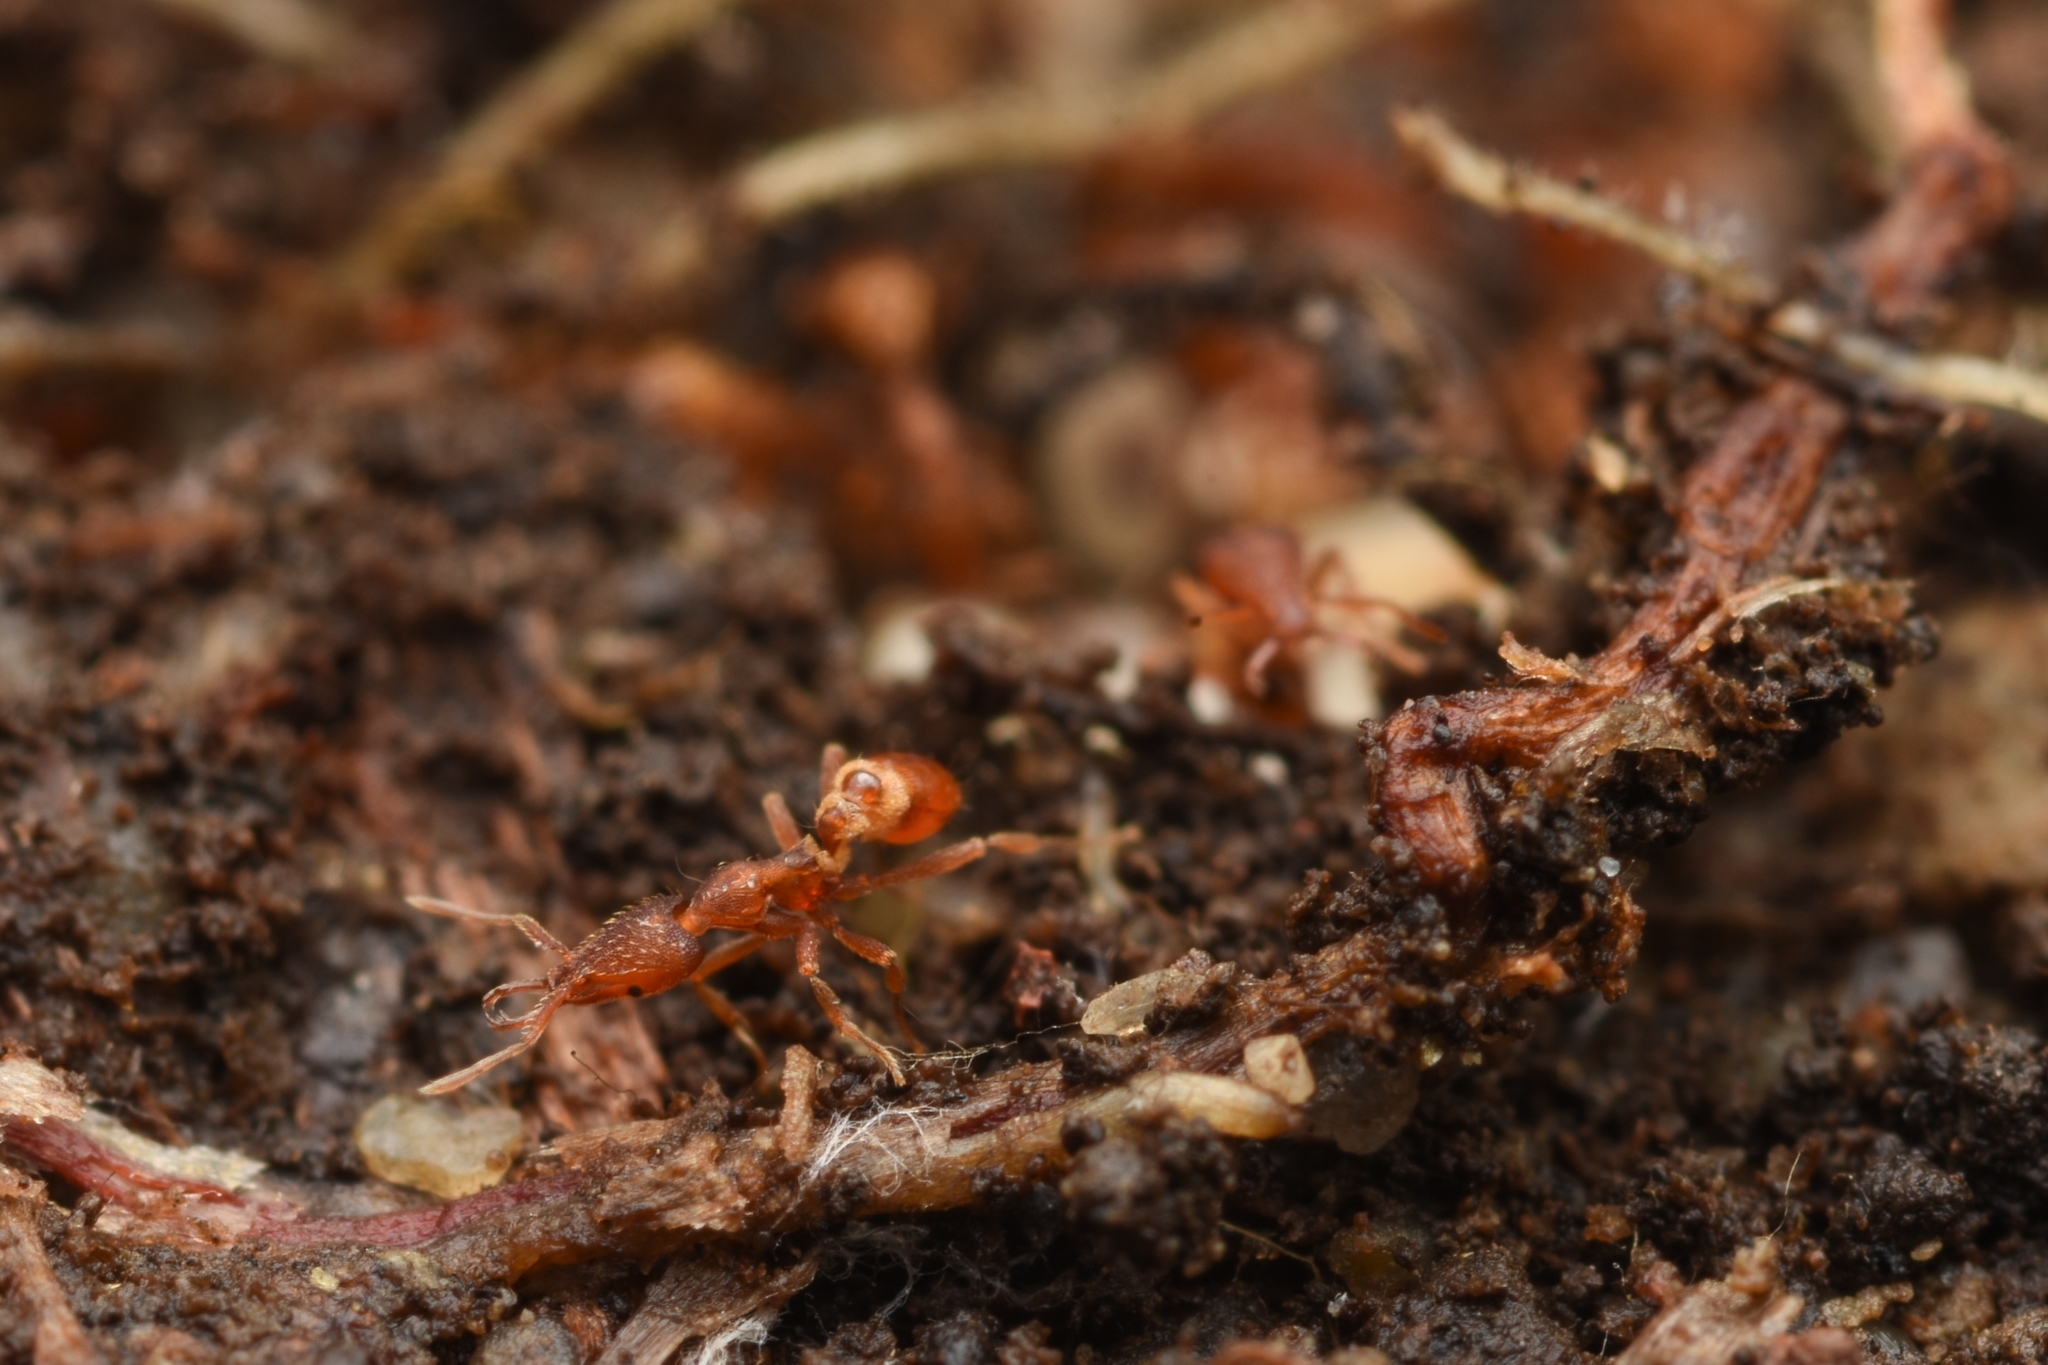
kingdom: Animalia
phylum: Arthropoda
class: Insecta
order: Hymenoptera
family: Formicidae
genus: Strumigenys
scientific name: Strumigenys lewisi
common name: Ant
